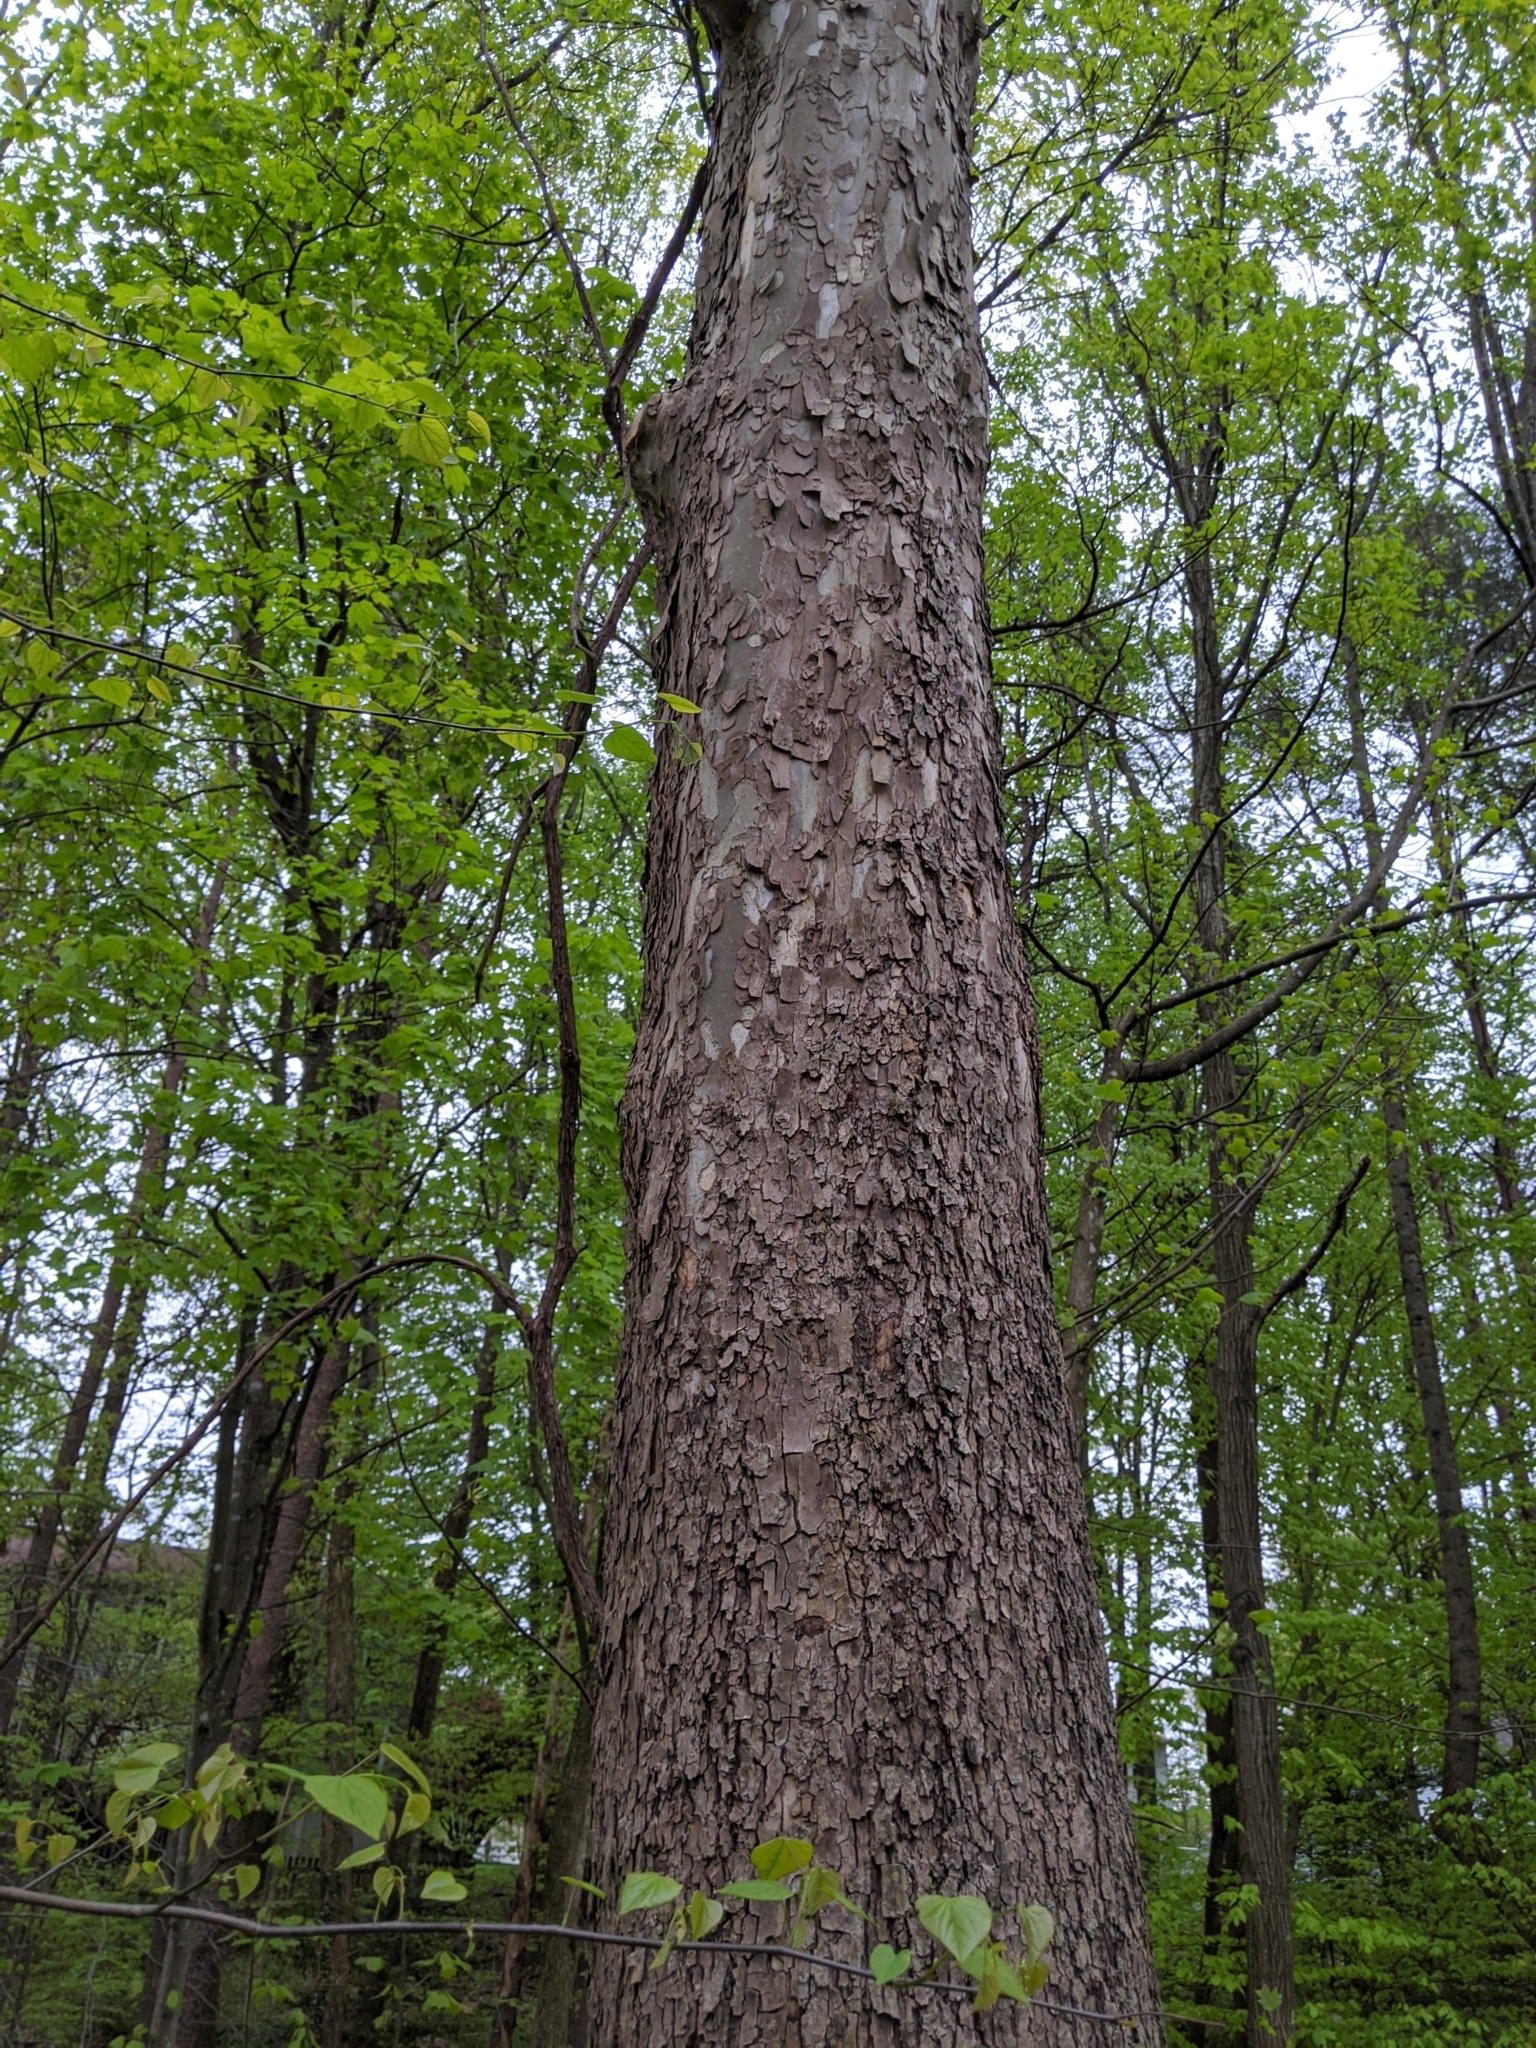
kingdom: Plantae
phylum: Tracheophyta
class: Magnoliopsida
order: Proteales
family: Platanaceae
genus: Platanus
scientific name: Platanus occidentalis
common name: American sycamore
